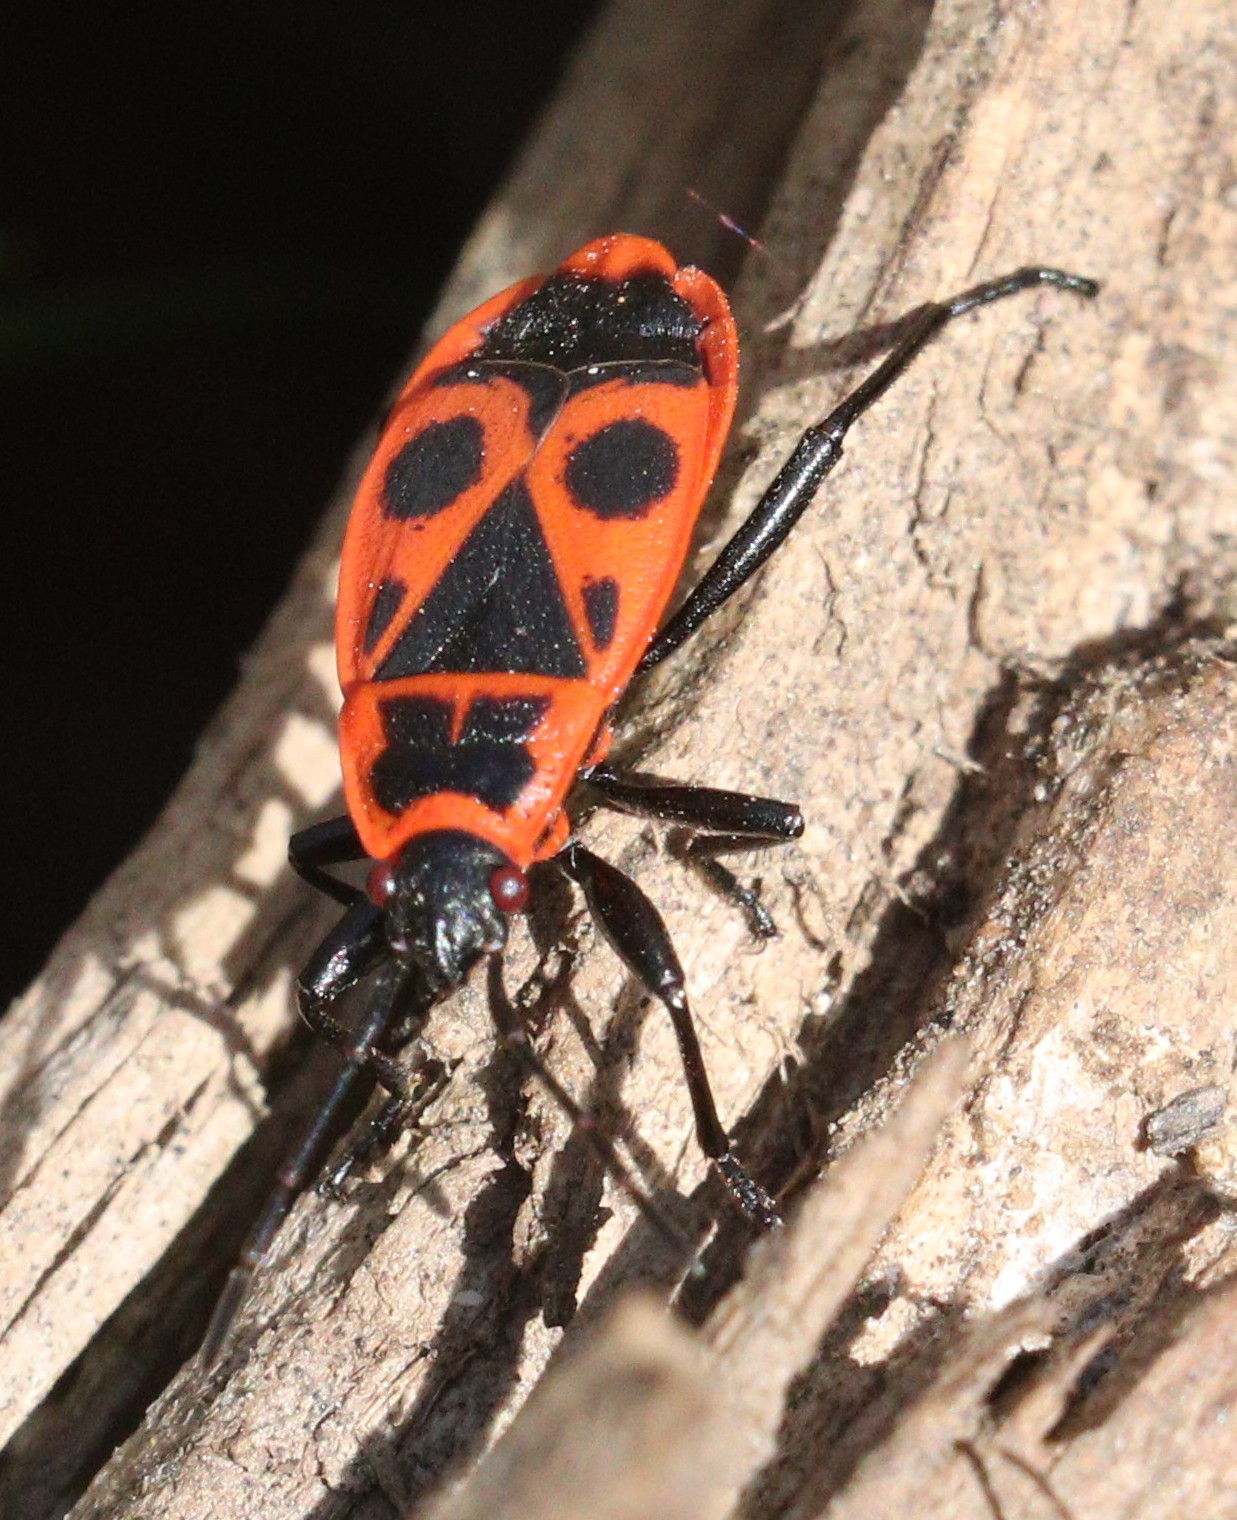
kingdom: Animalia
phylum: Arthropoda
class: Insecta
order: Hemiptera
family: Pyrrhocoridae
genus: Pyrrhocoris
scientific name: Pyrrhocoris apterus
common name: Firebug
